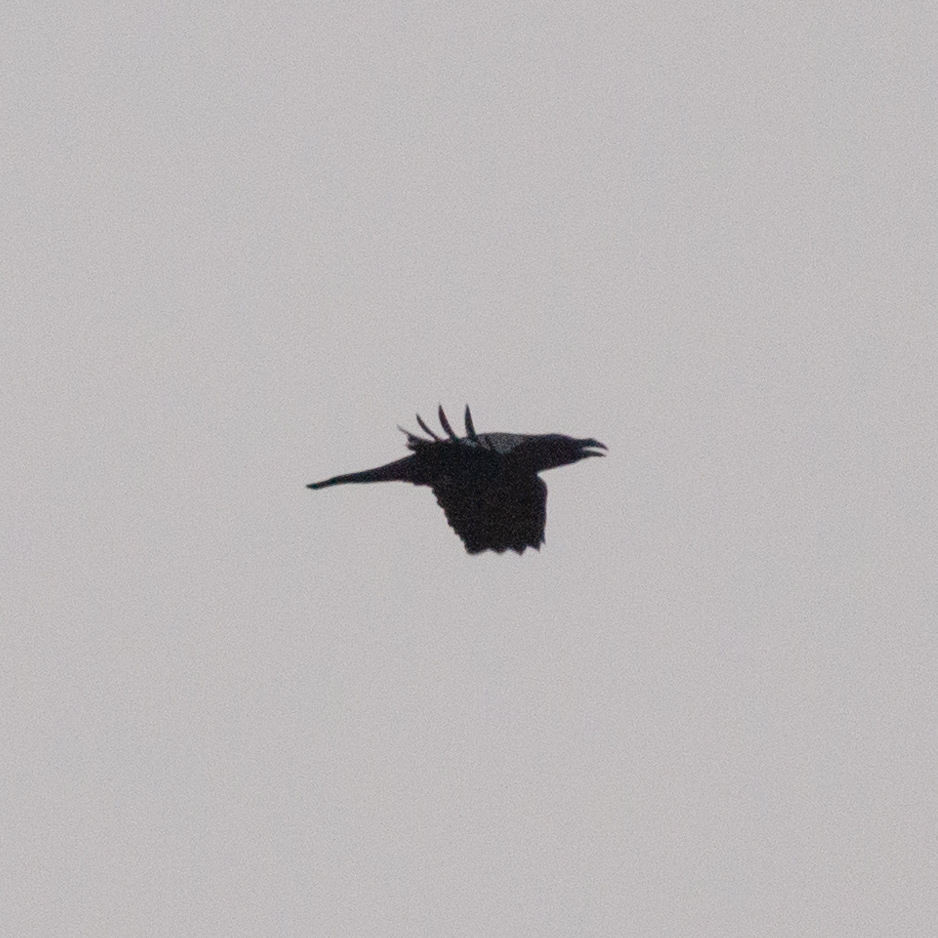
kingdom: Animalia
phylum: Chordata
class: Aves
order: Passeriformes
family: Corvidae
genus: Corvus
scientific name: Corvus corax
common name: Common raven
